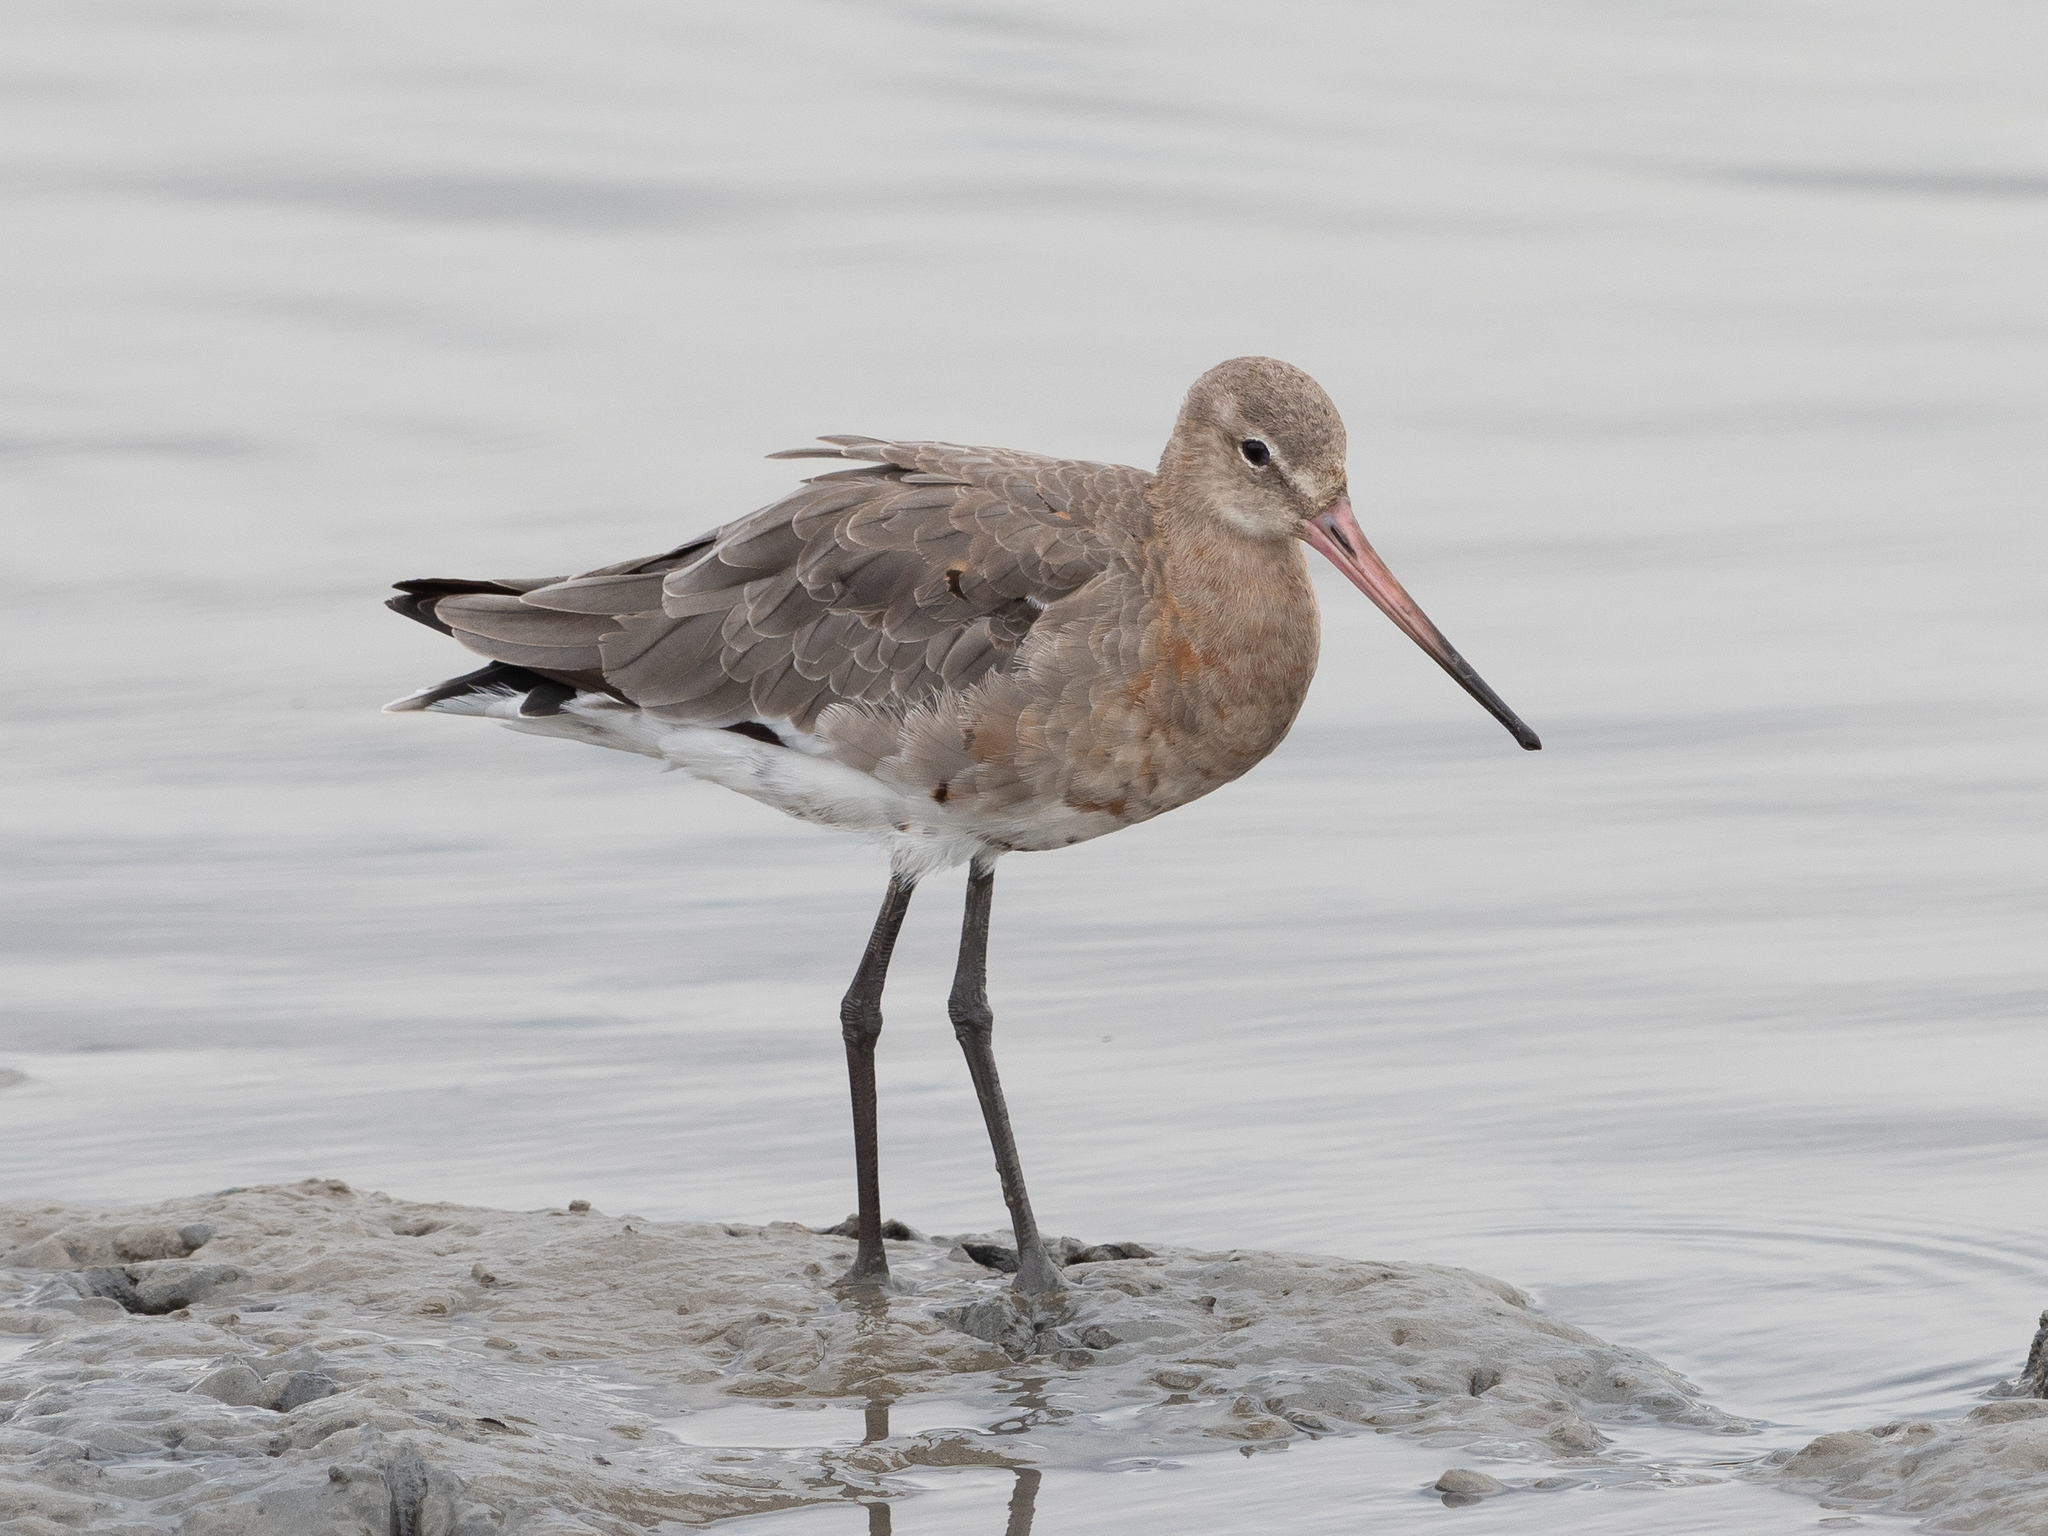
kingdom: Animalia
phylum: Chordata
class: Aves
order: Charadriiformes
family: Scolopacidae
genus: Limosa
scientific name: Limosa limosa
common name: Black-tailed godwit
